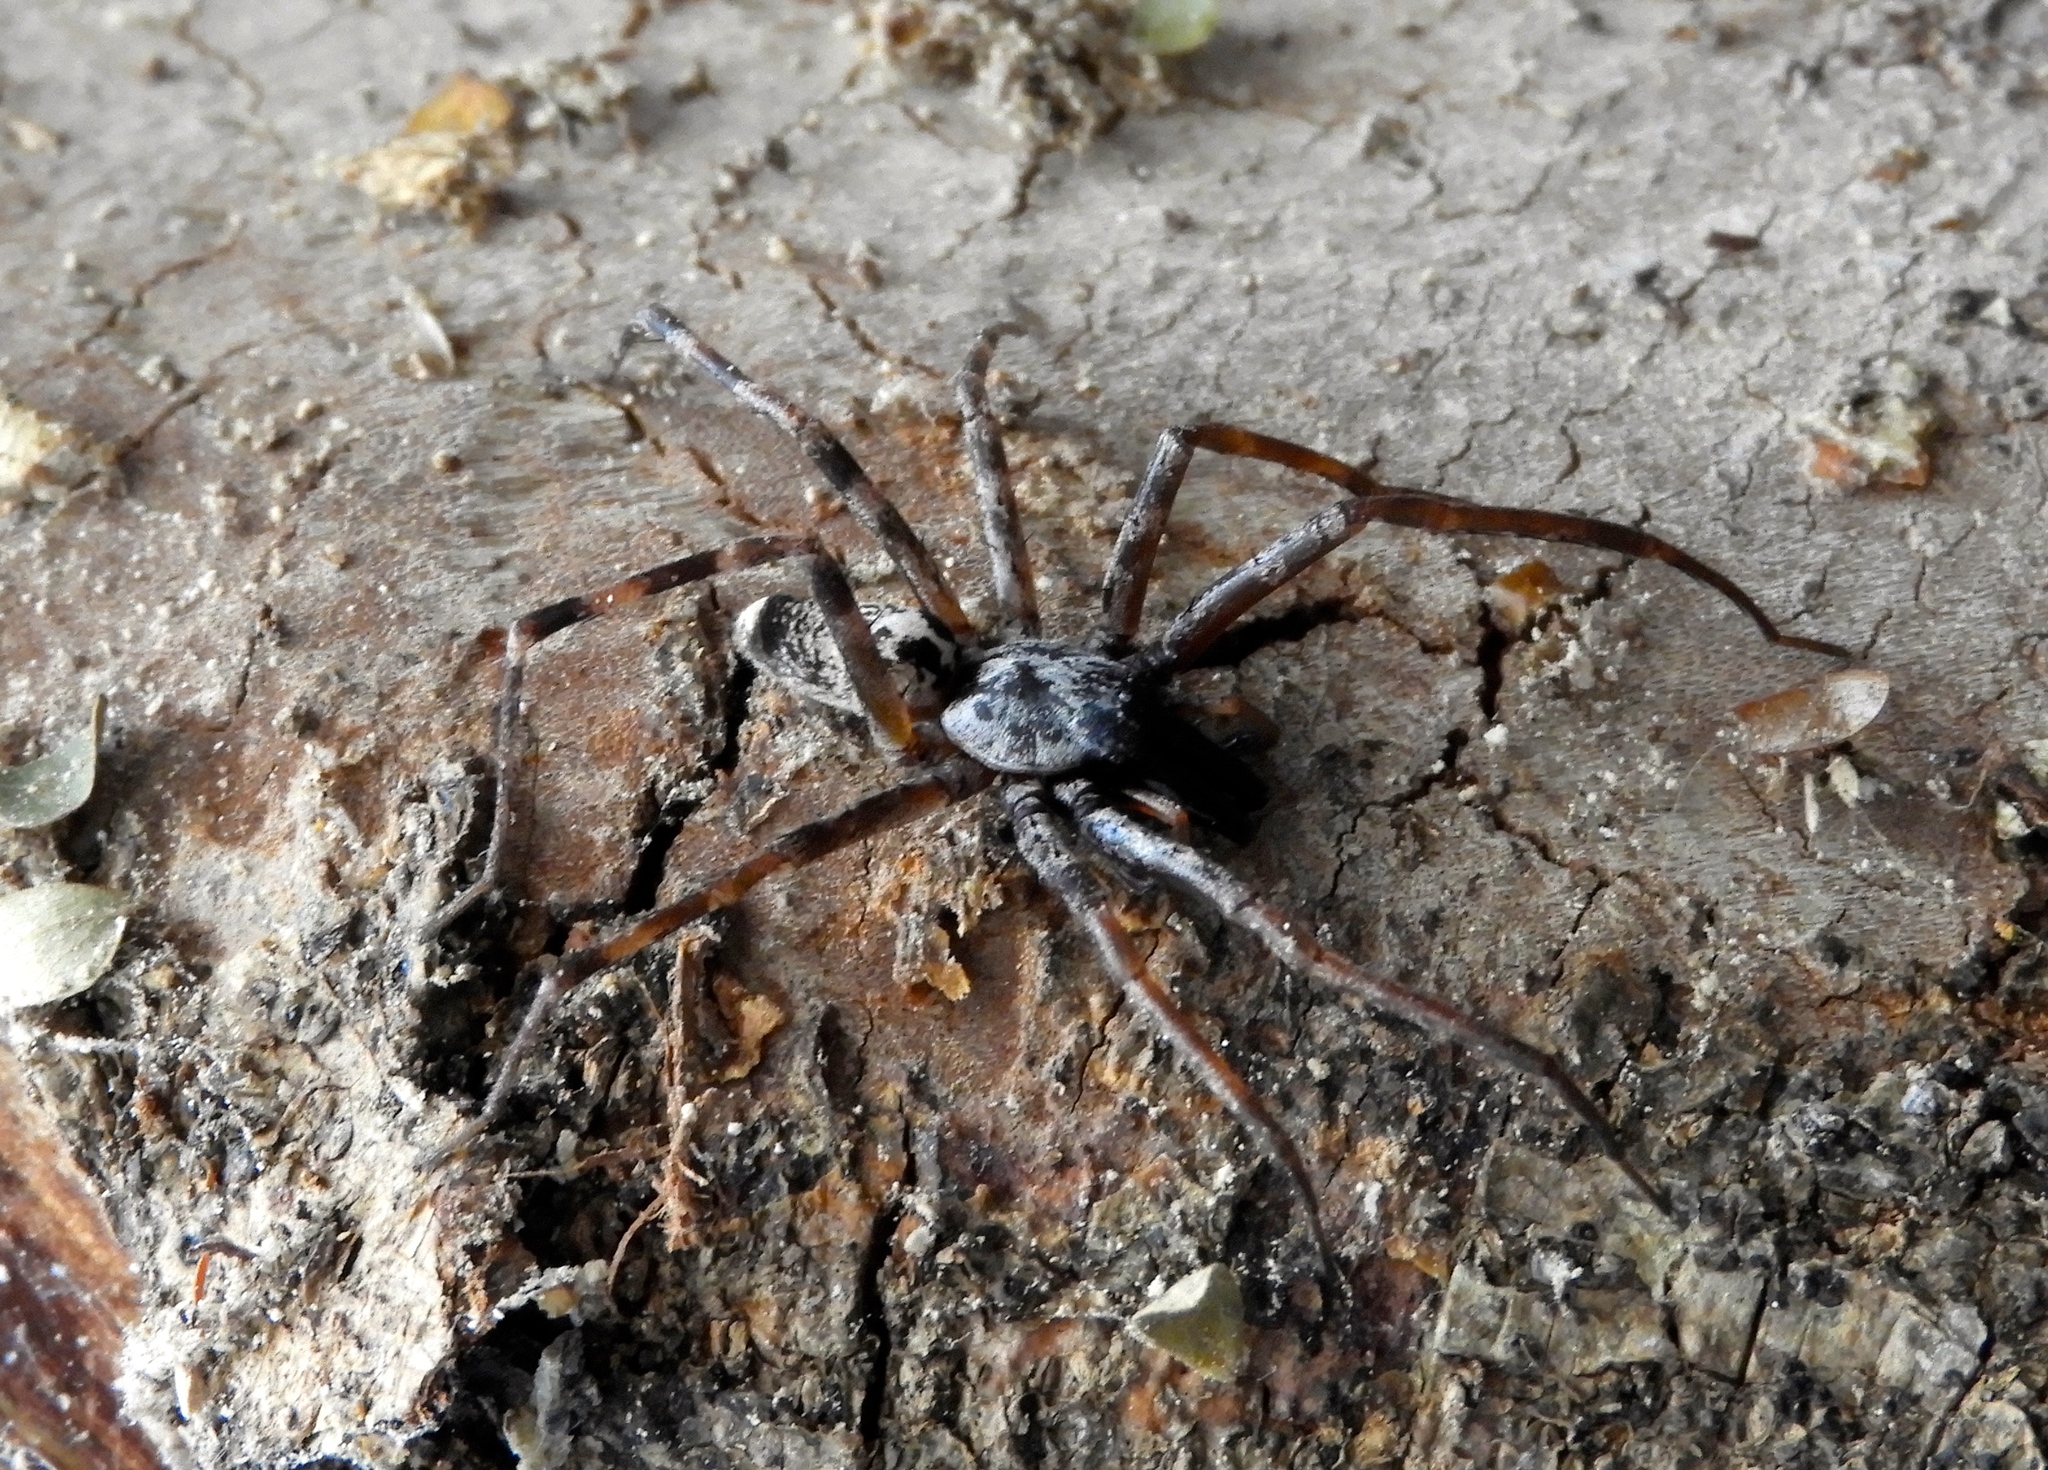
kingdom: Animalia
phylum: Arthropoda
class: Arachnida
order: Araneae
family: Corinnidae
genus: Megalostrata
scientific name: Megalostrata
